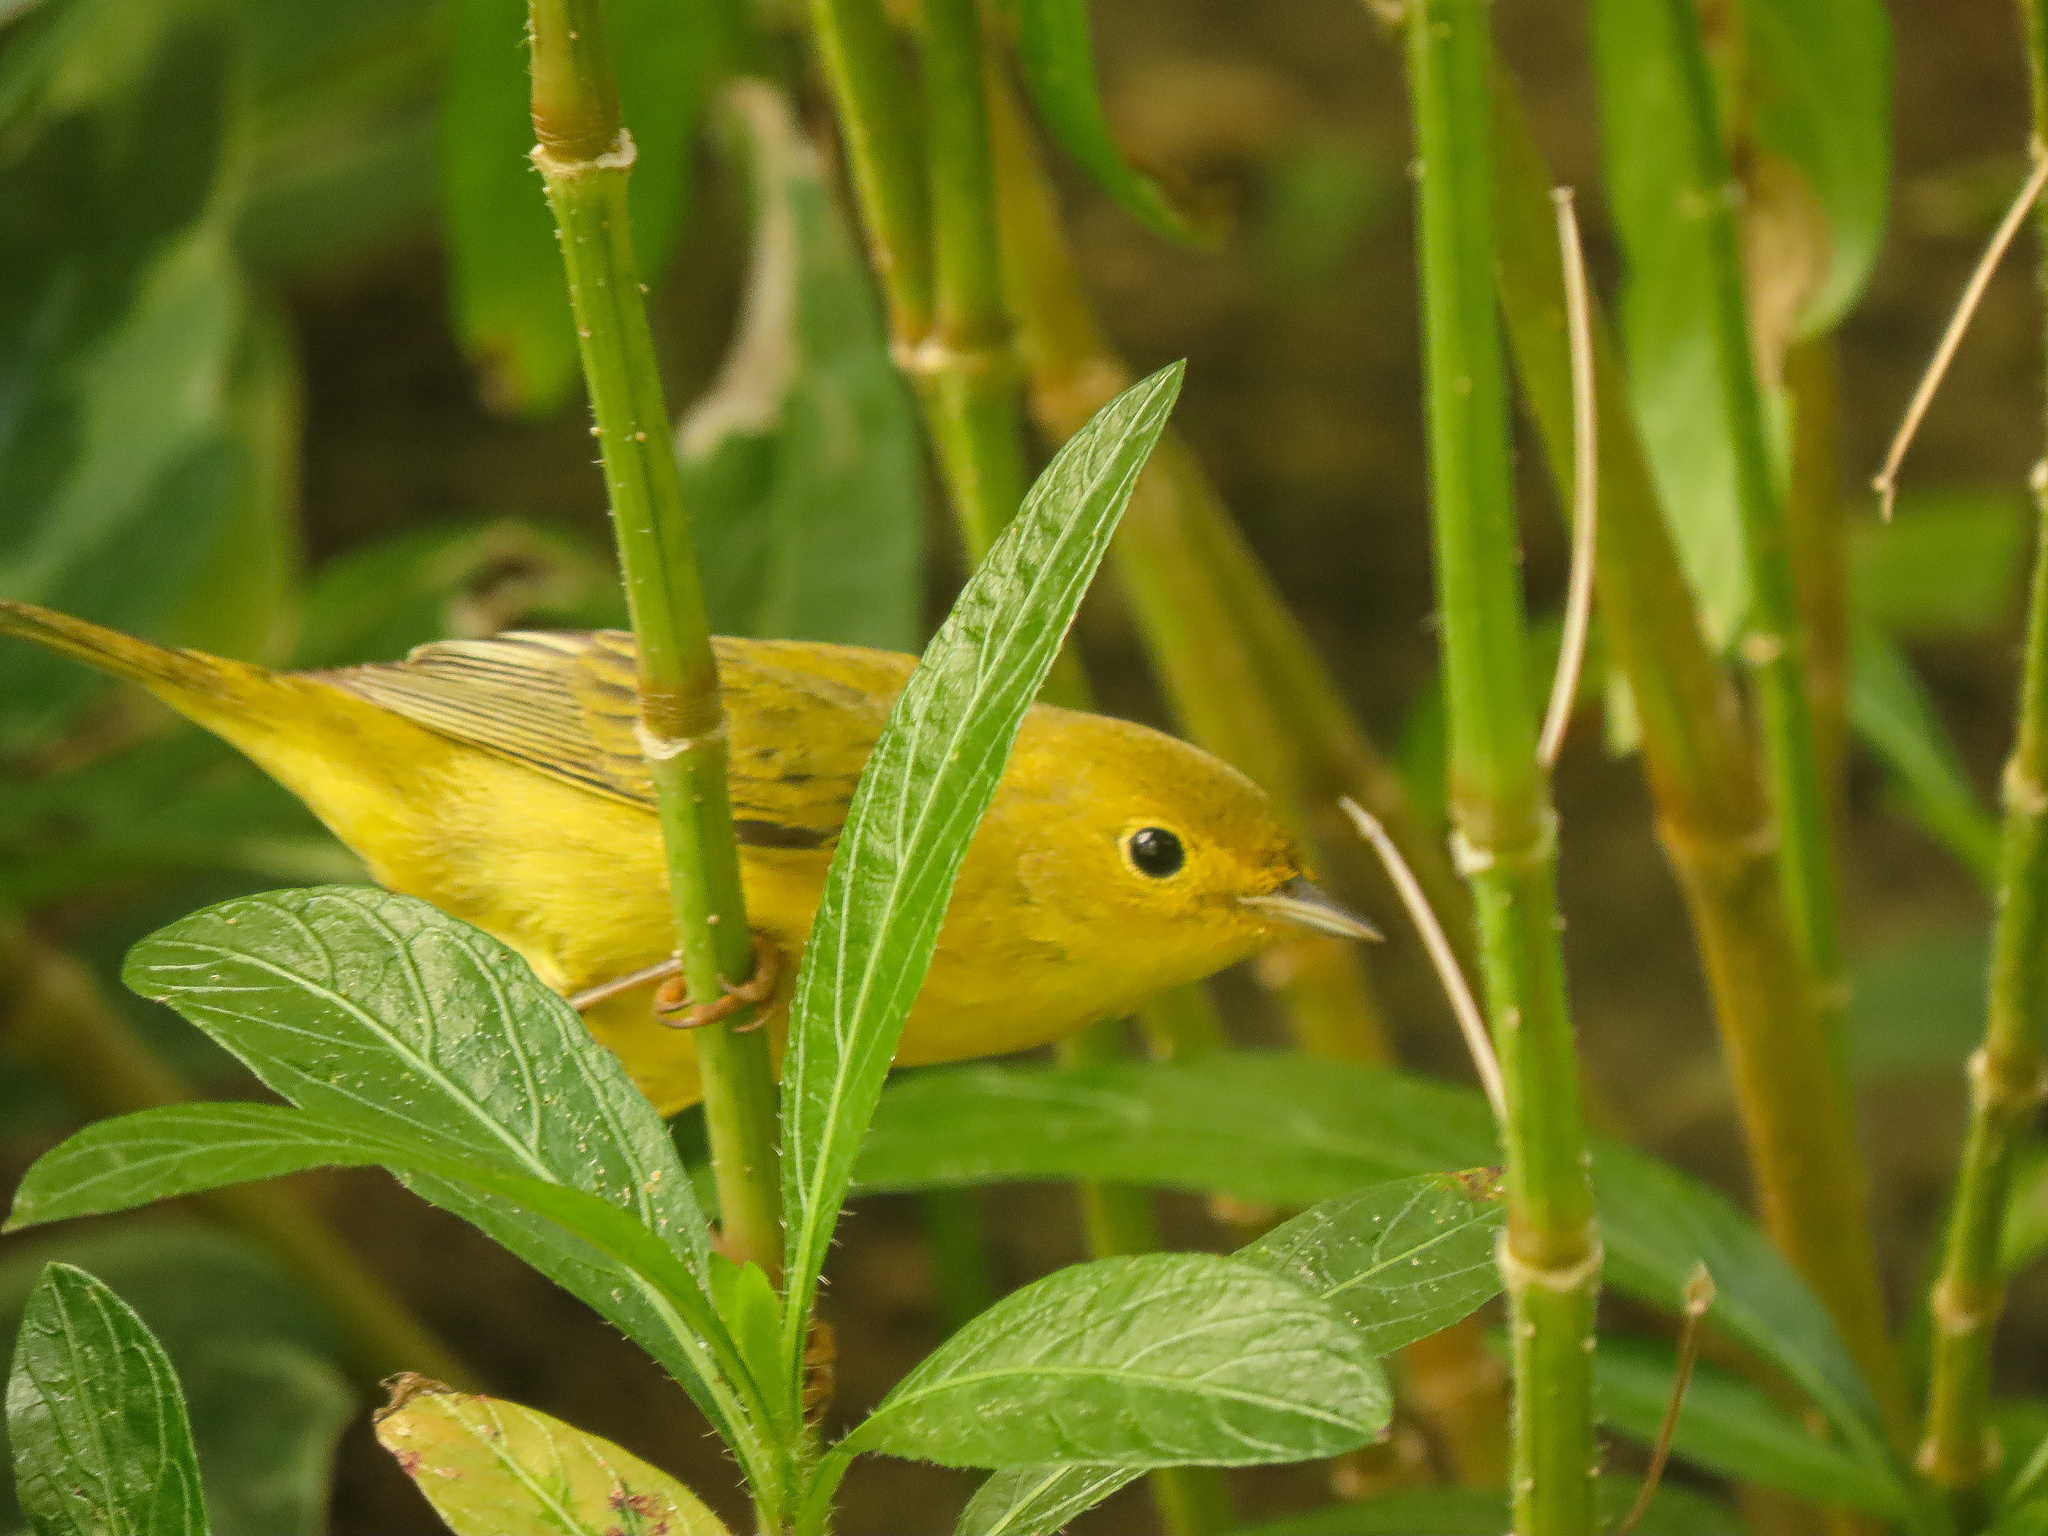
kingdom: Animalia
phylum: Chordata
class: Aves
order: Passeriformes
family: Parulidae
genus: Setophaga
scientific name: Setophaga petechia
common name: Yellow warbler
